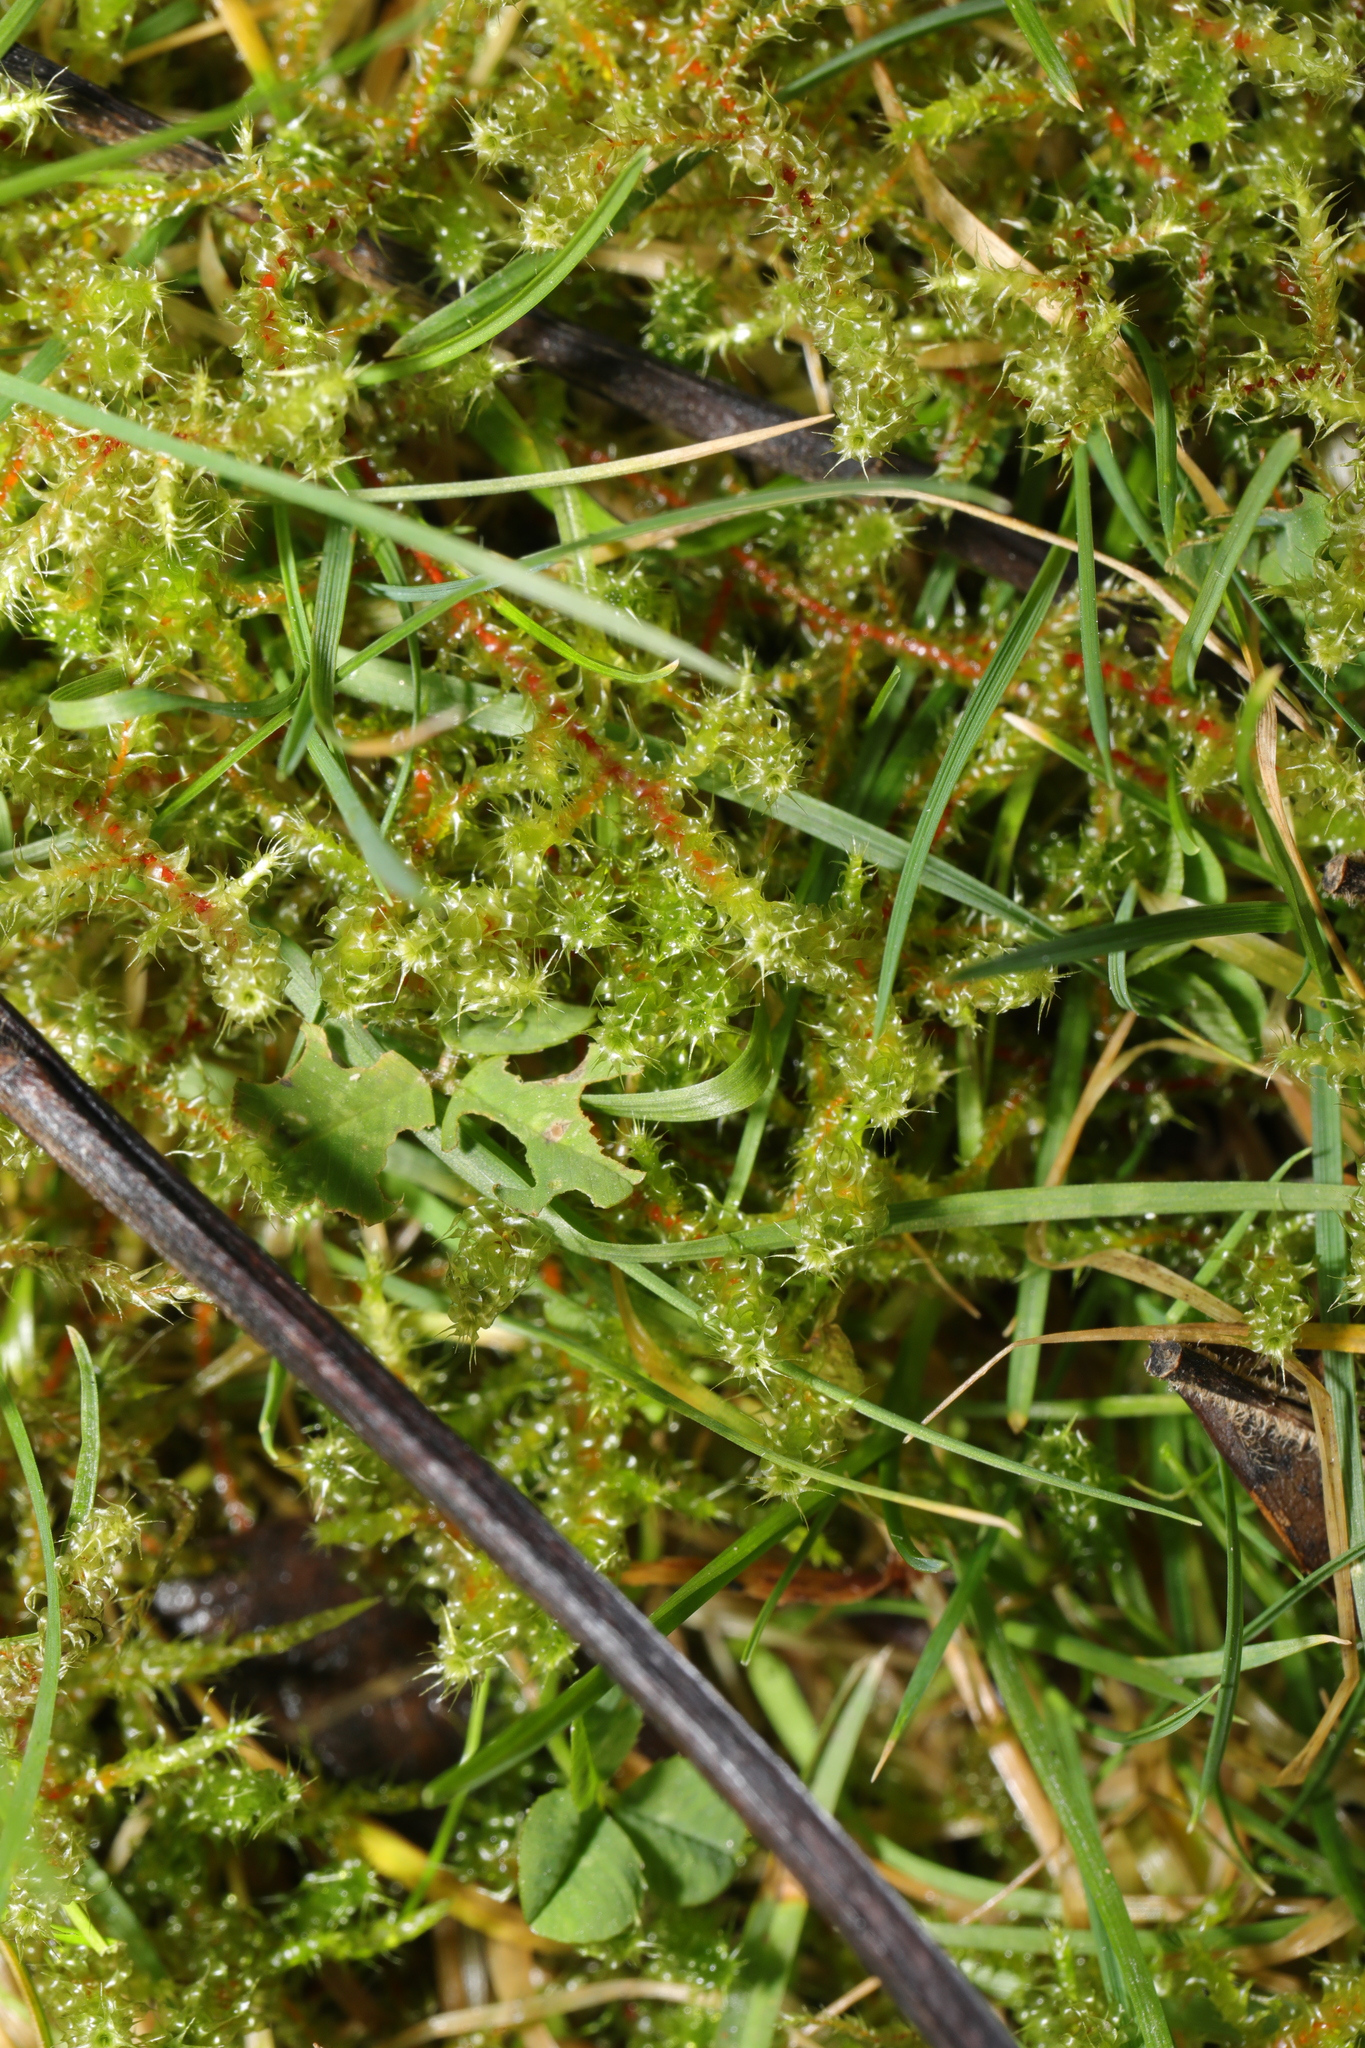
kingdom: Plantae
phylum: Bryophyta
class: Bryopsida
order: Hypnales
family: Hylocomiaceae
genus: Rhytidiadelphus
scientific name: Rhytidiadelphus squarrosus
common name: Springy turf-moss
